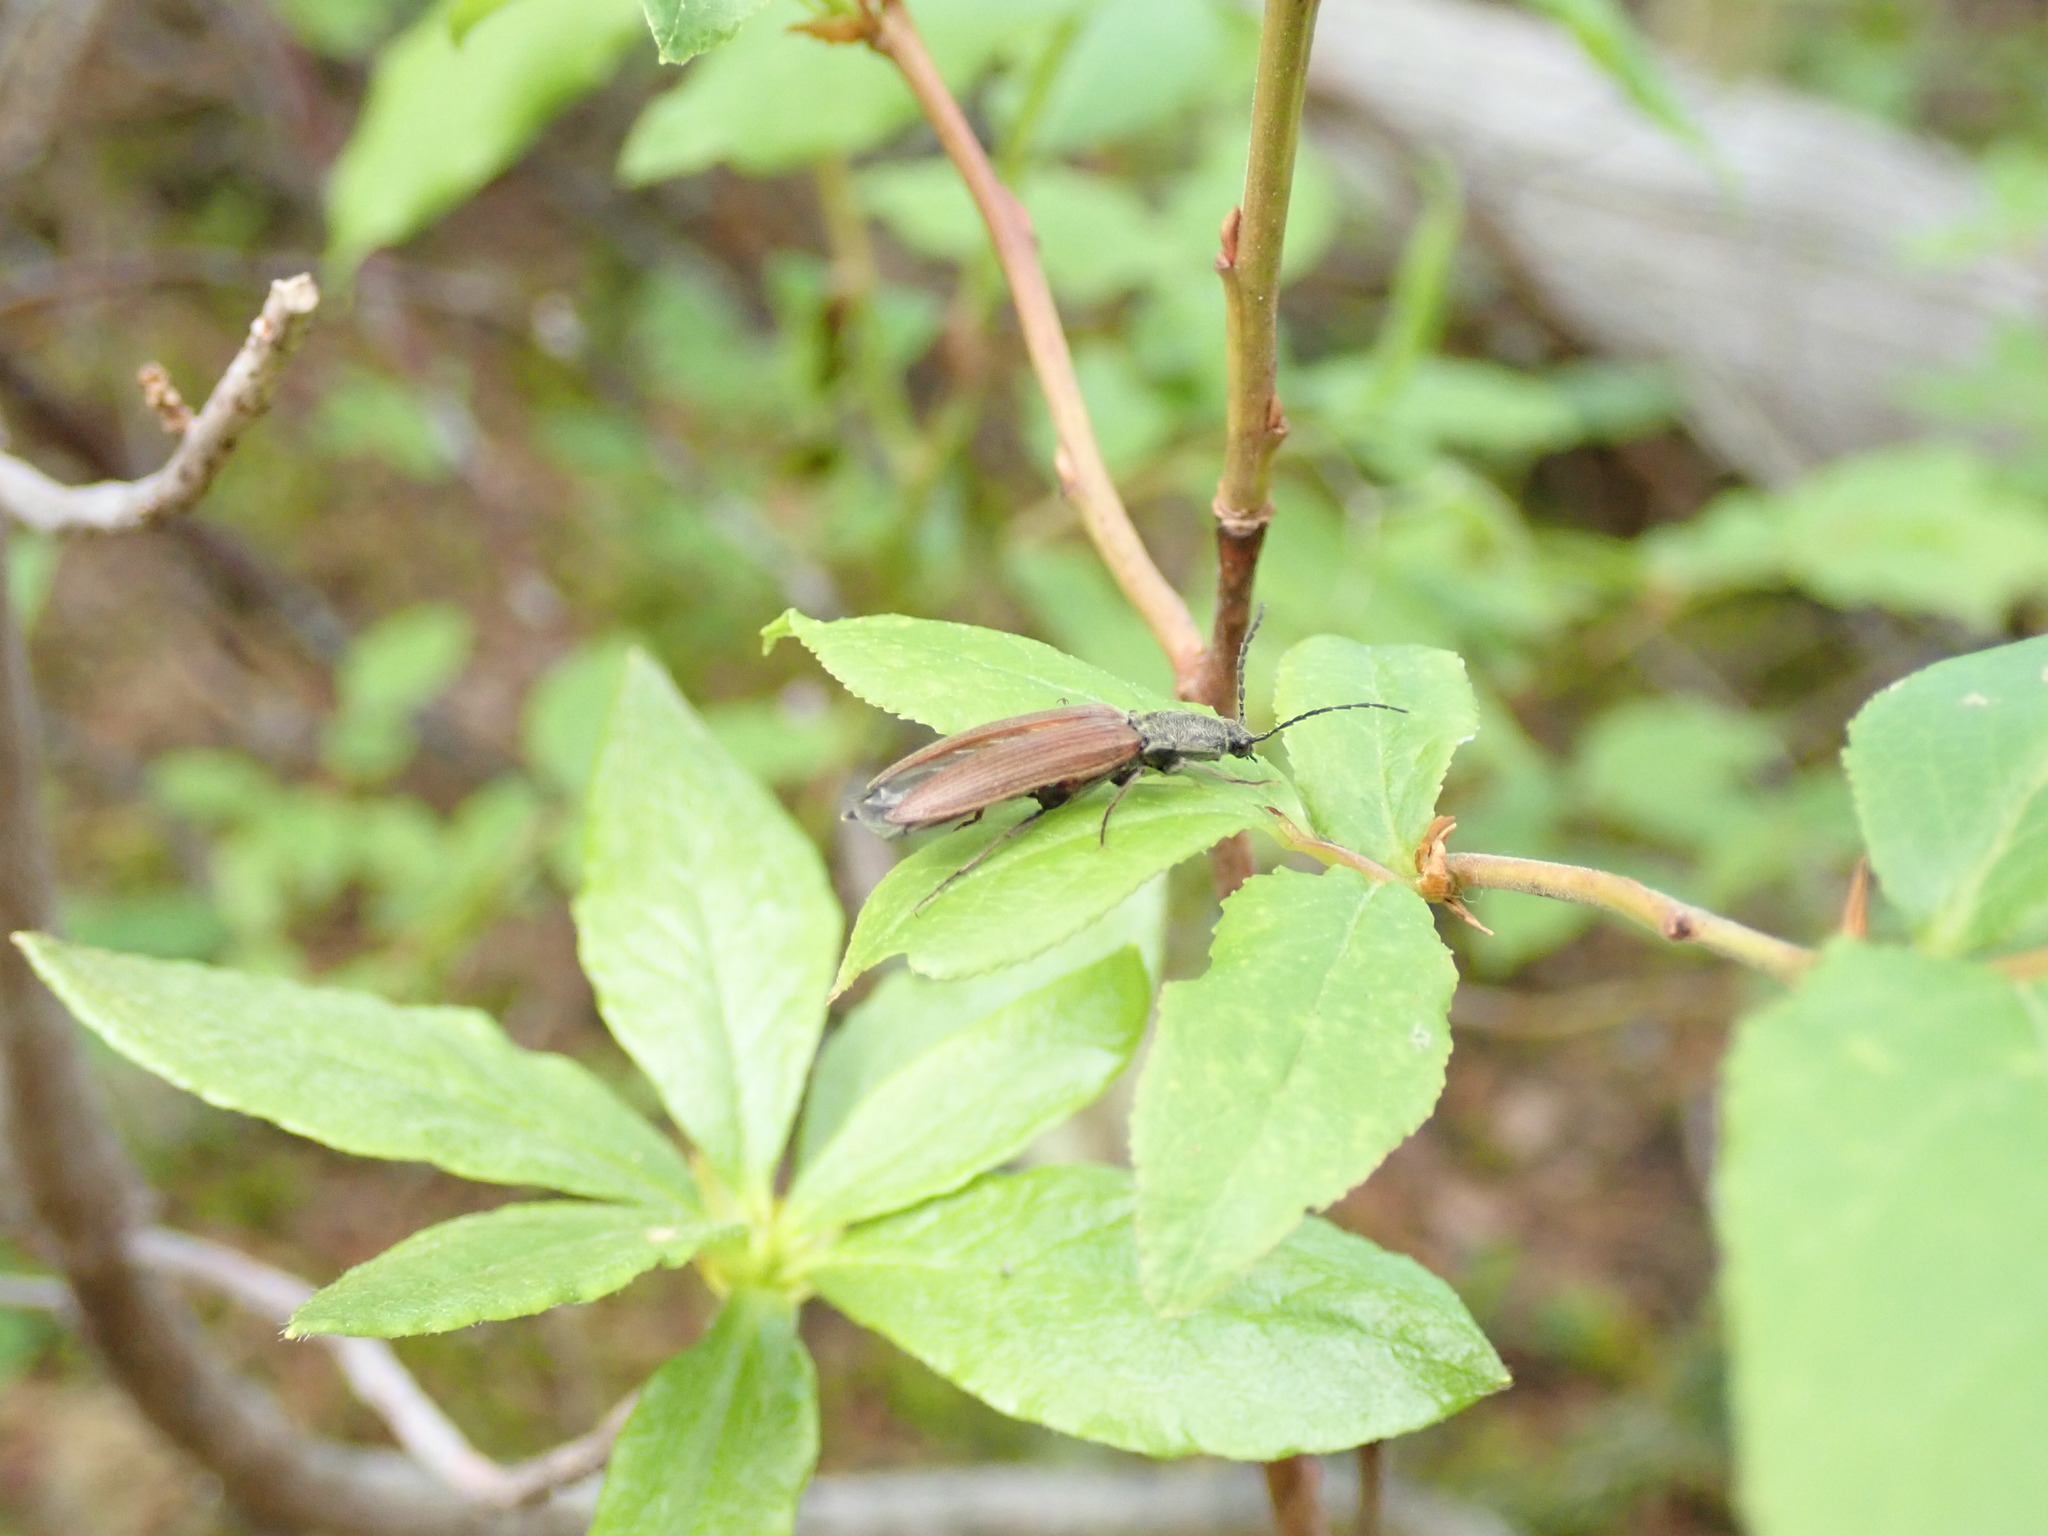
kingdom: Animalia
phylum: Arthropoda
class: Insecta
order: Coleoptera
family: Elateridae
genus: Acteniceromorphus
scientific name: Acteniceromorphus
